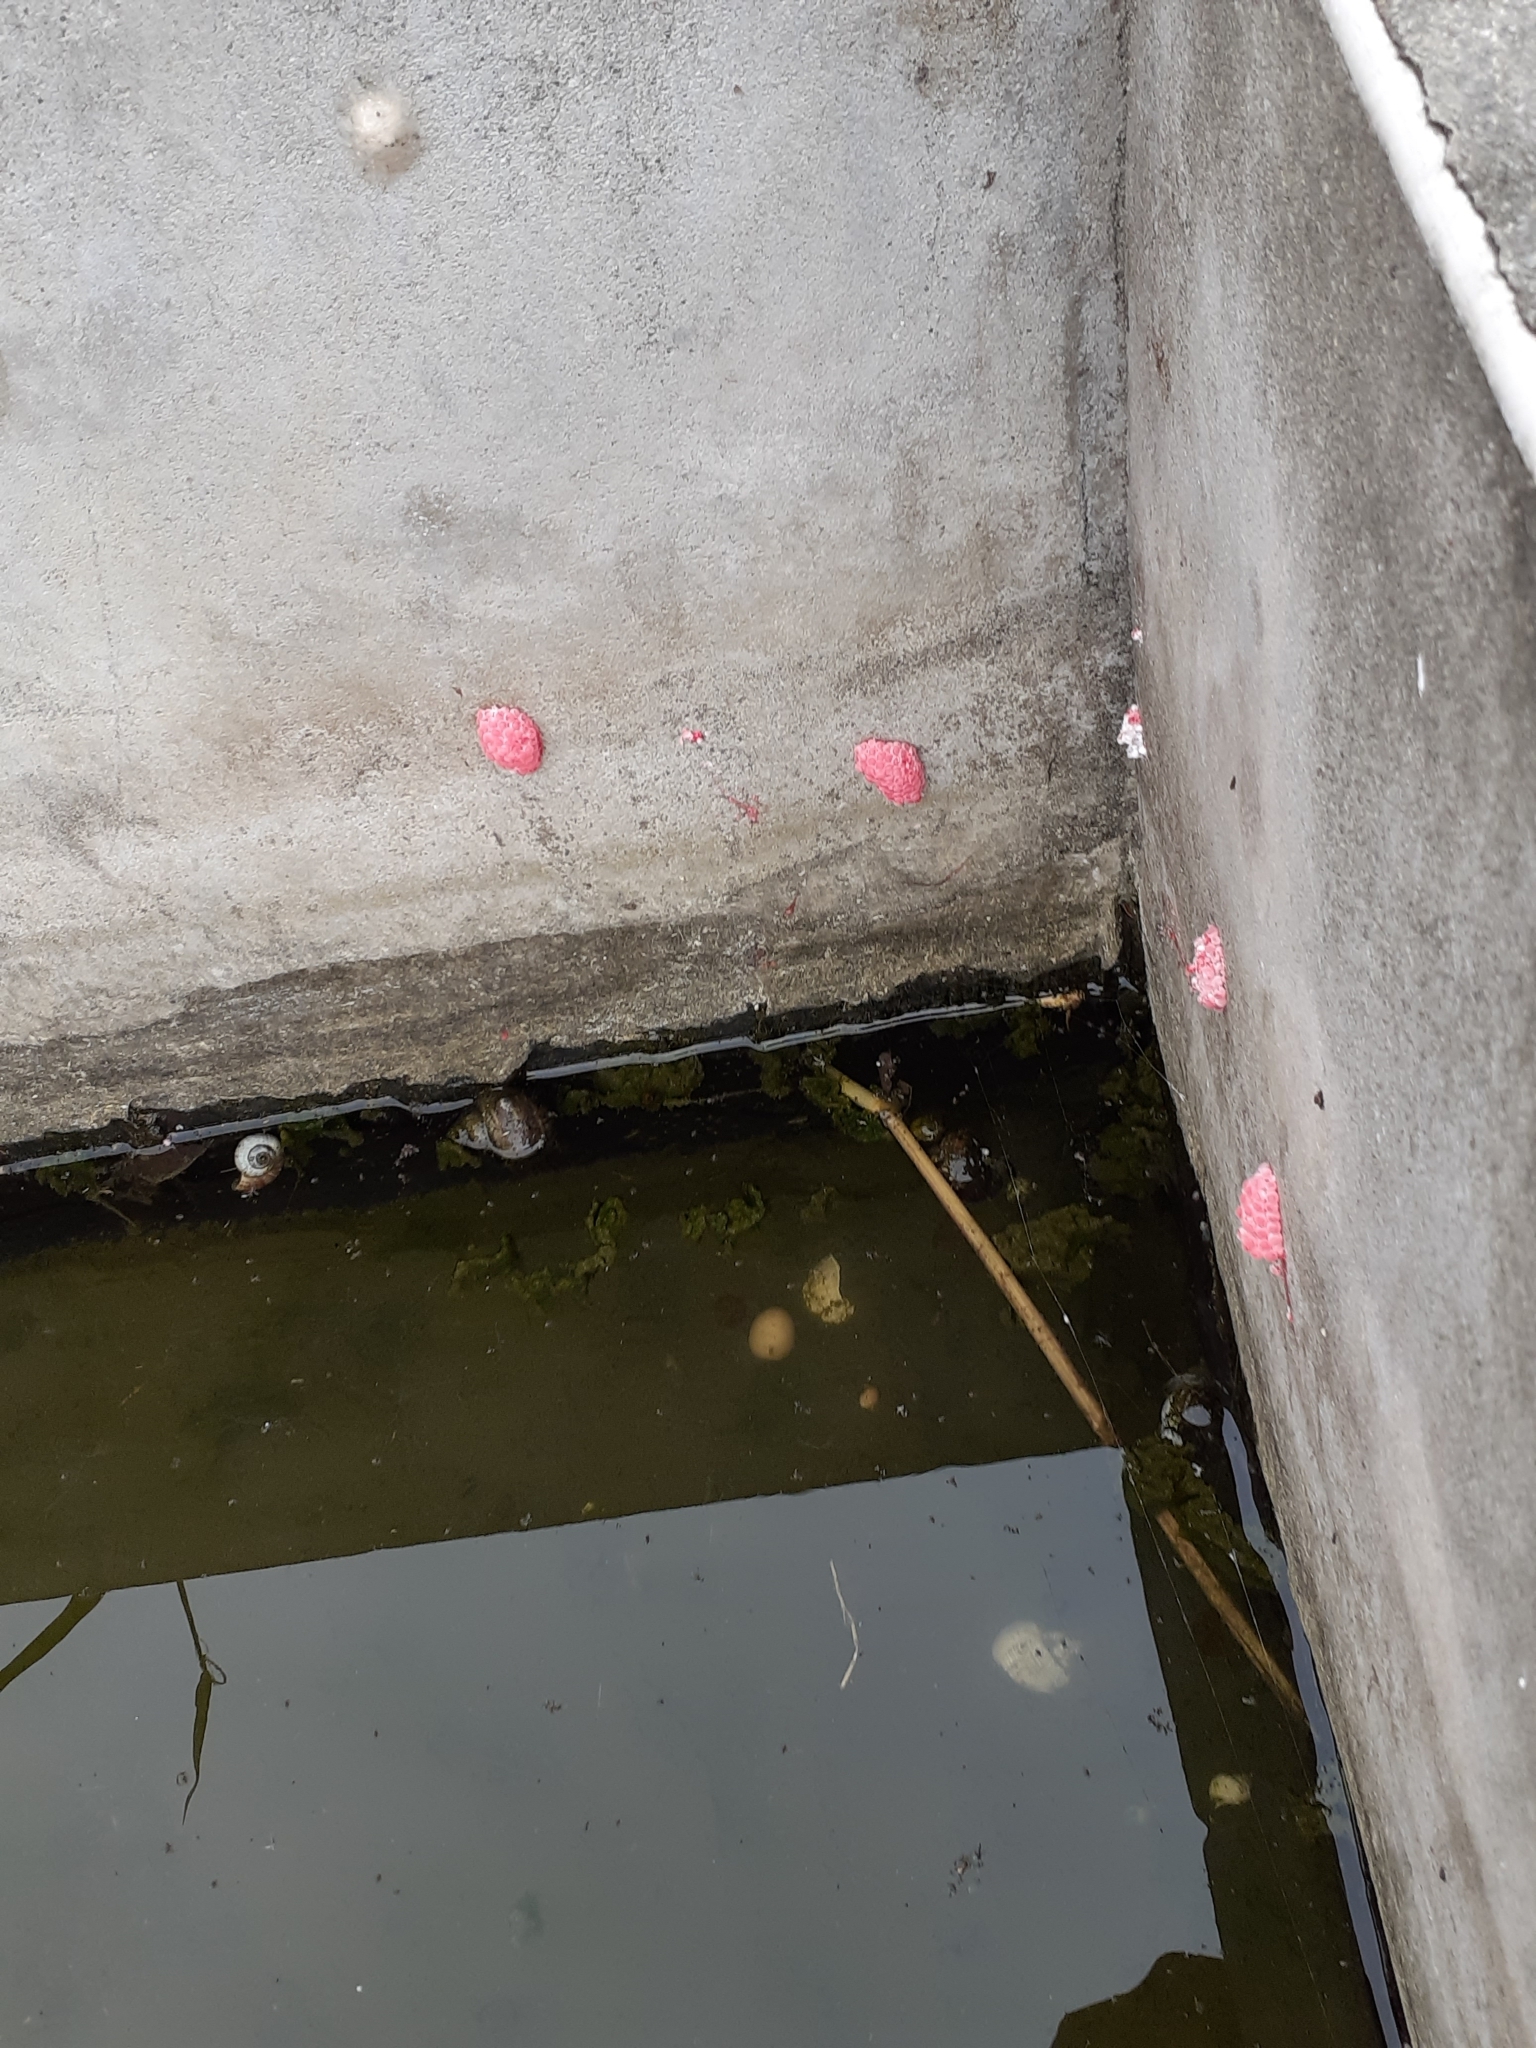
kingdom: Animalia
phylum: Mollusca
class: Gastropoda
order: Architaenioglossa
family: Ampullariidae
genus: Pomacea
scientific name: Pomacea canaliculata
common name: Channeled applesnail
